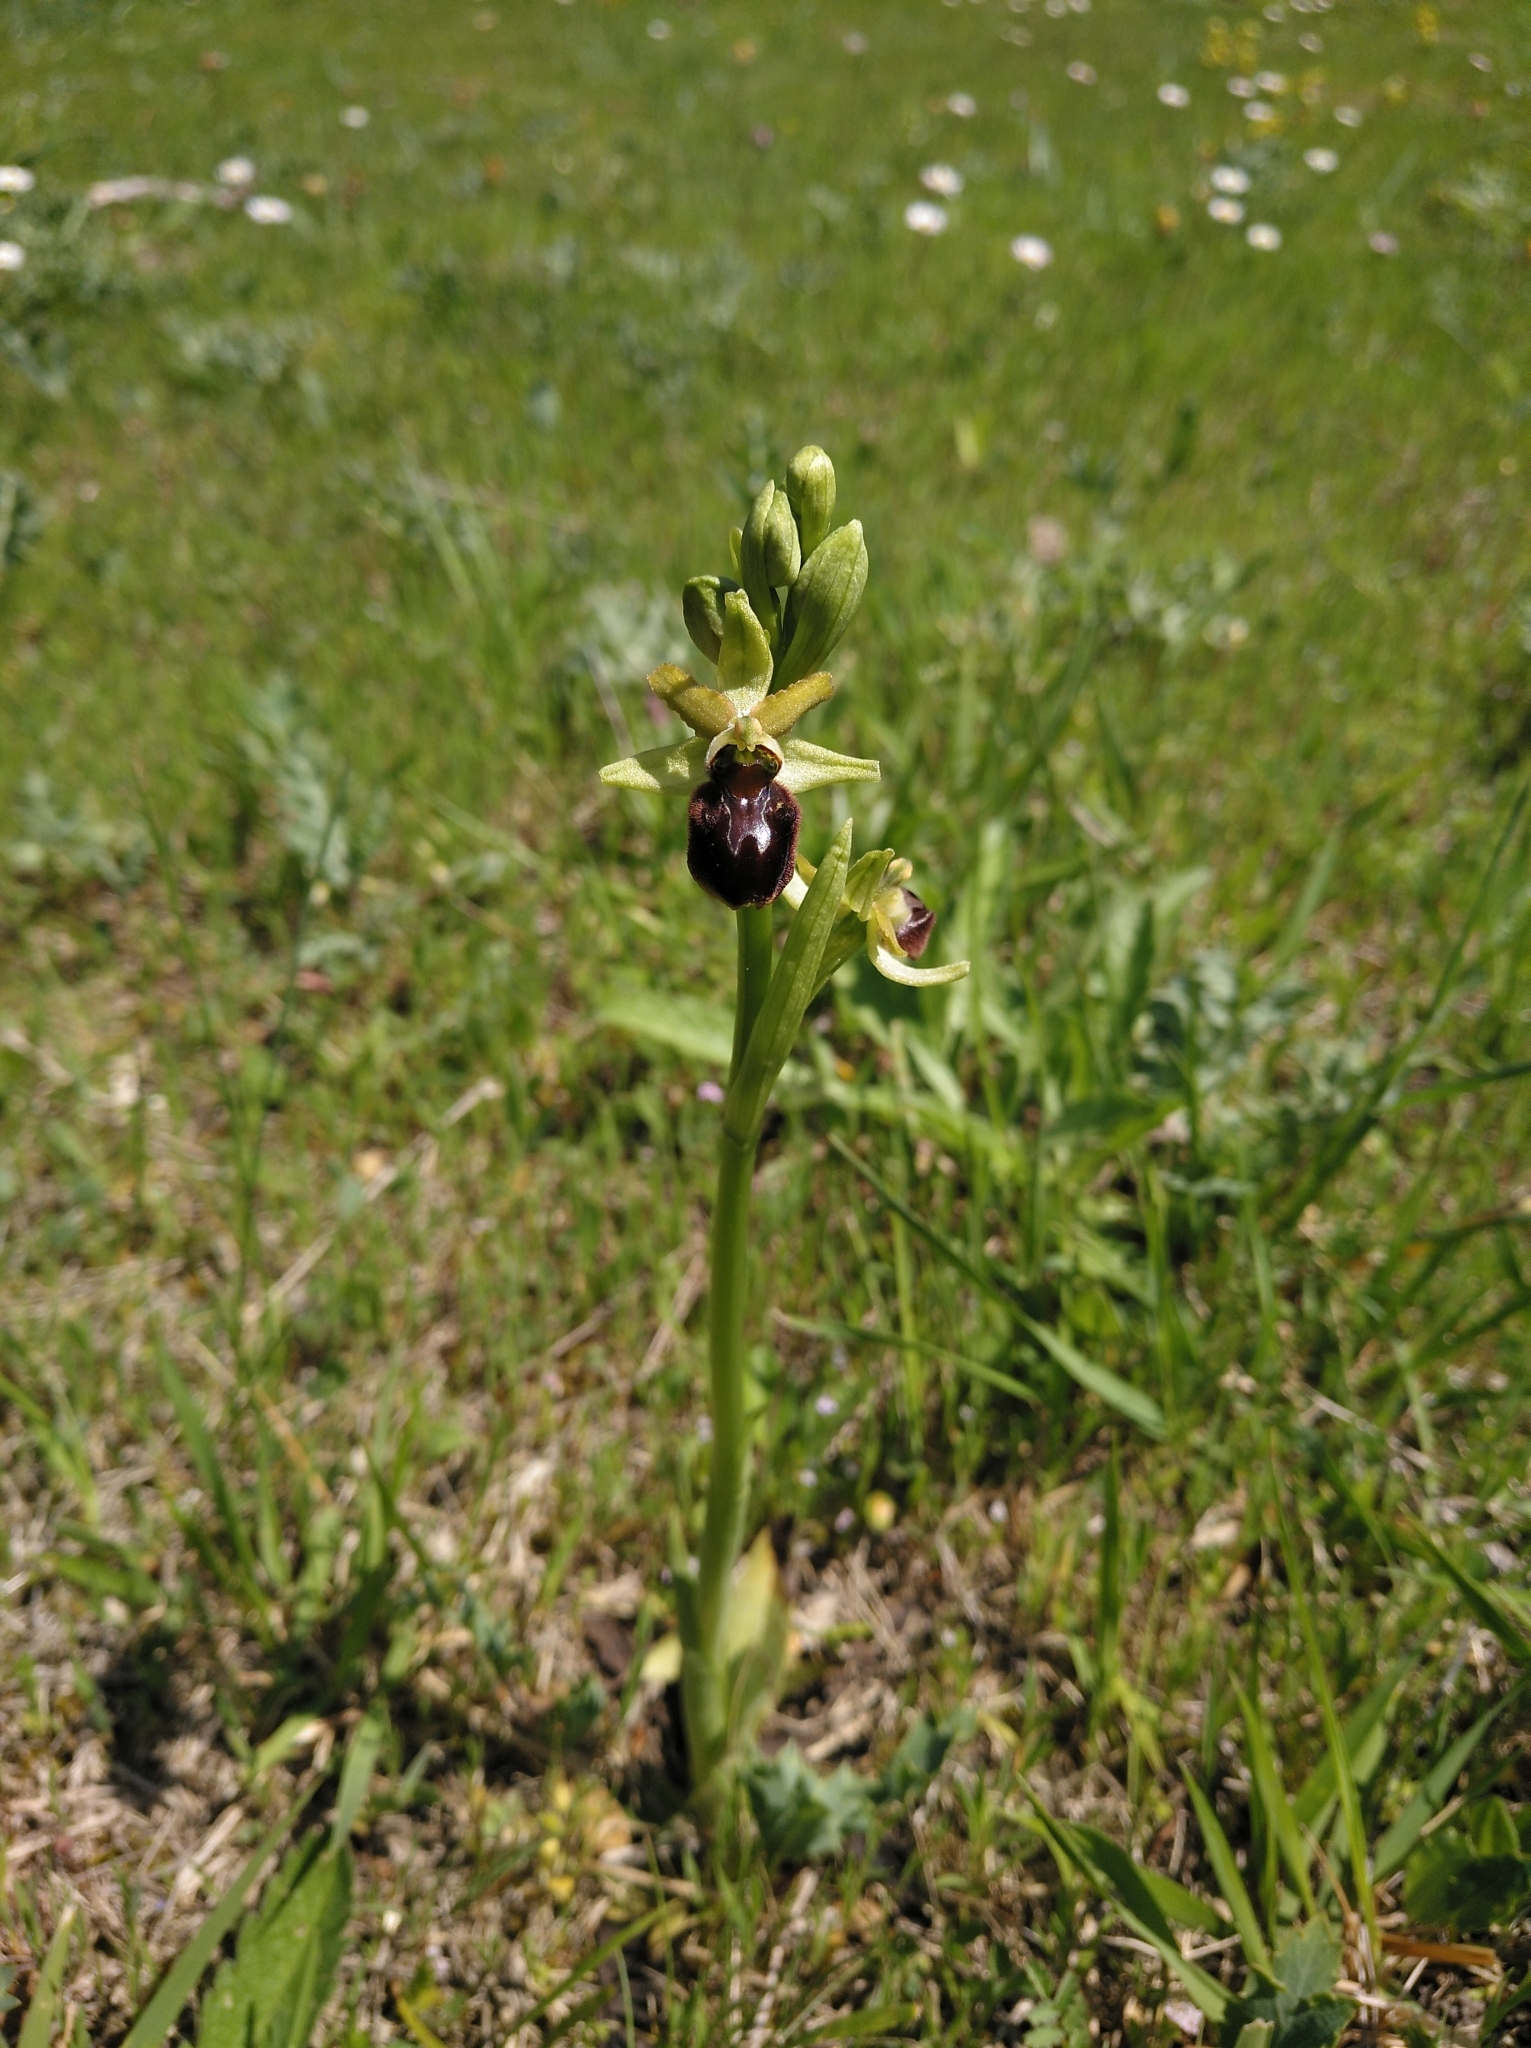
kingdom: Plantae
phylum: Tracheophyta
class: Liliopsida
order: Asparagales
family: Orchidaceae
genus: Ophrys
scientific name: Ophrys sphegodes
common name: Early spider-orchid
